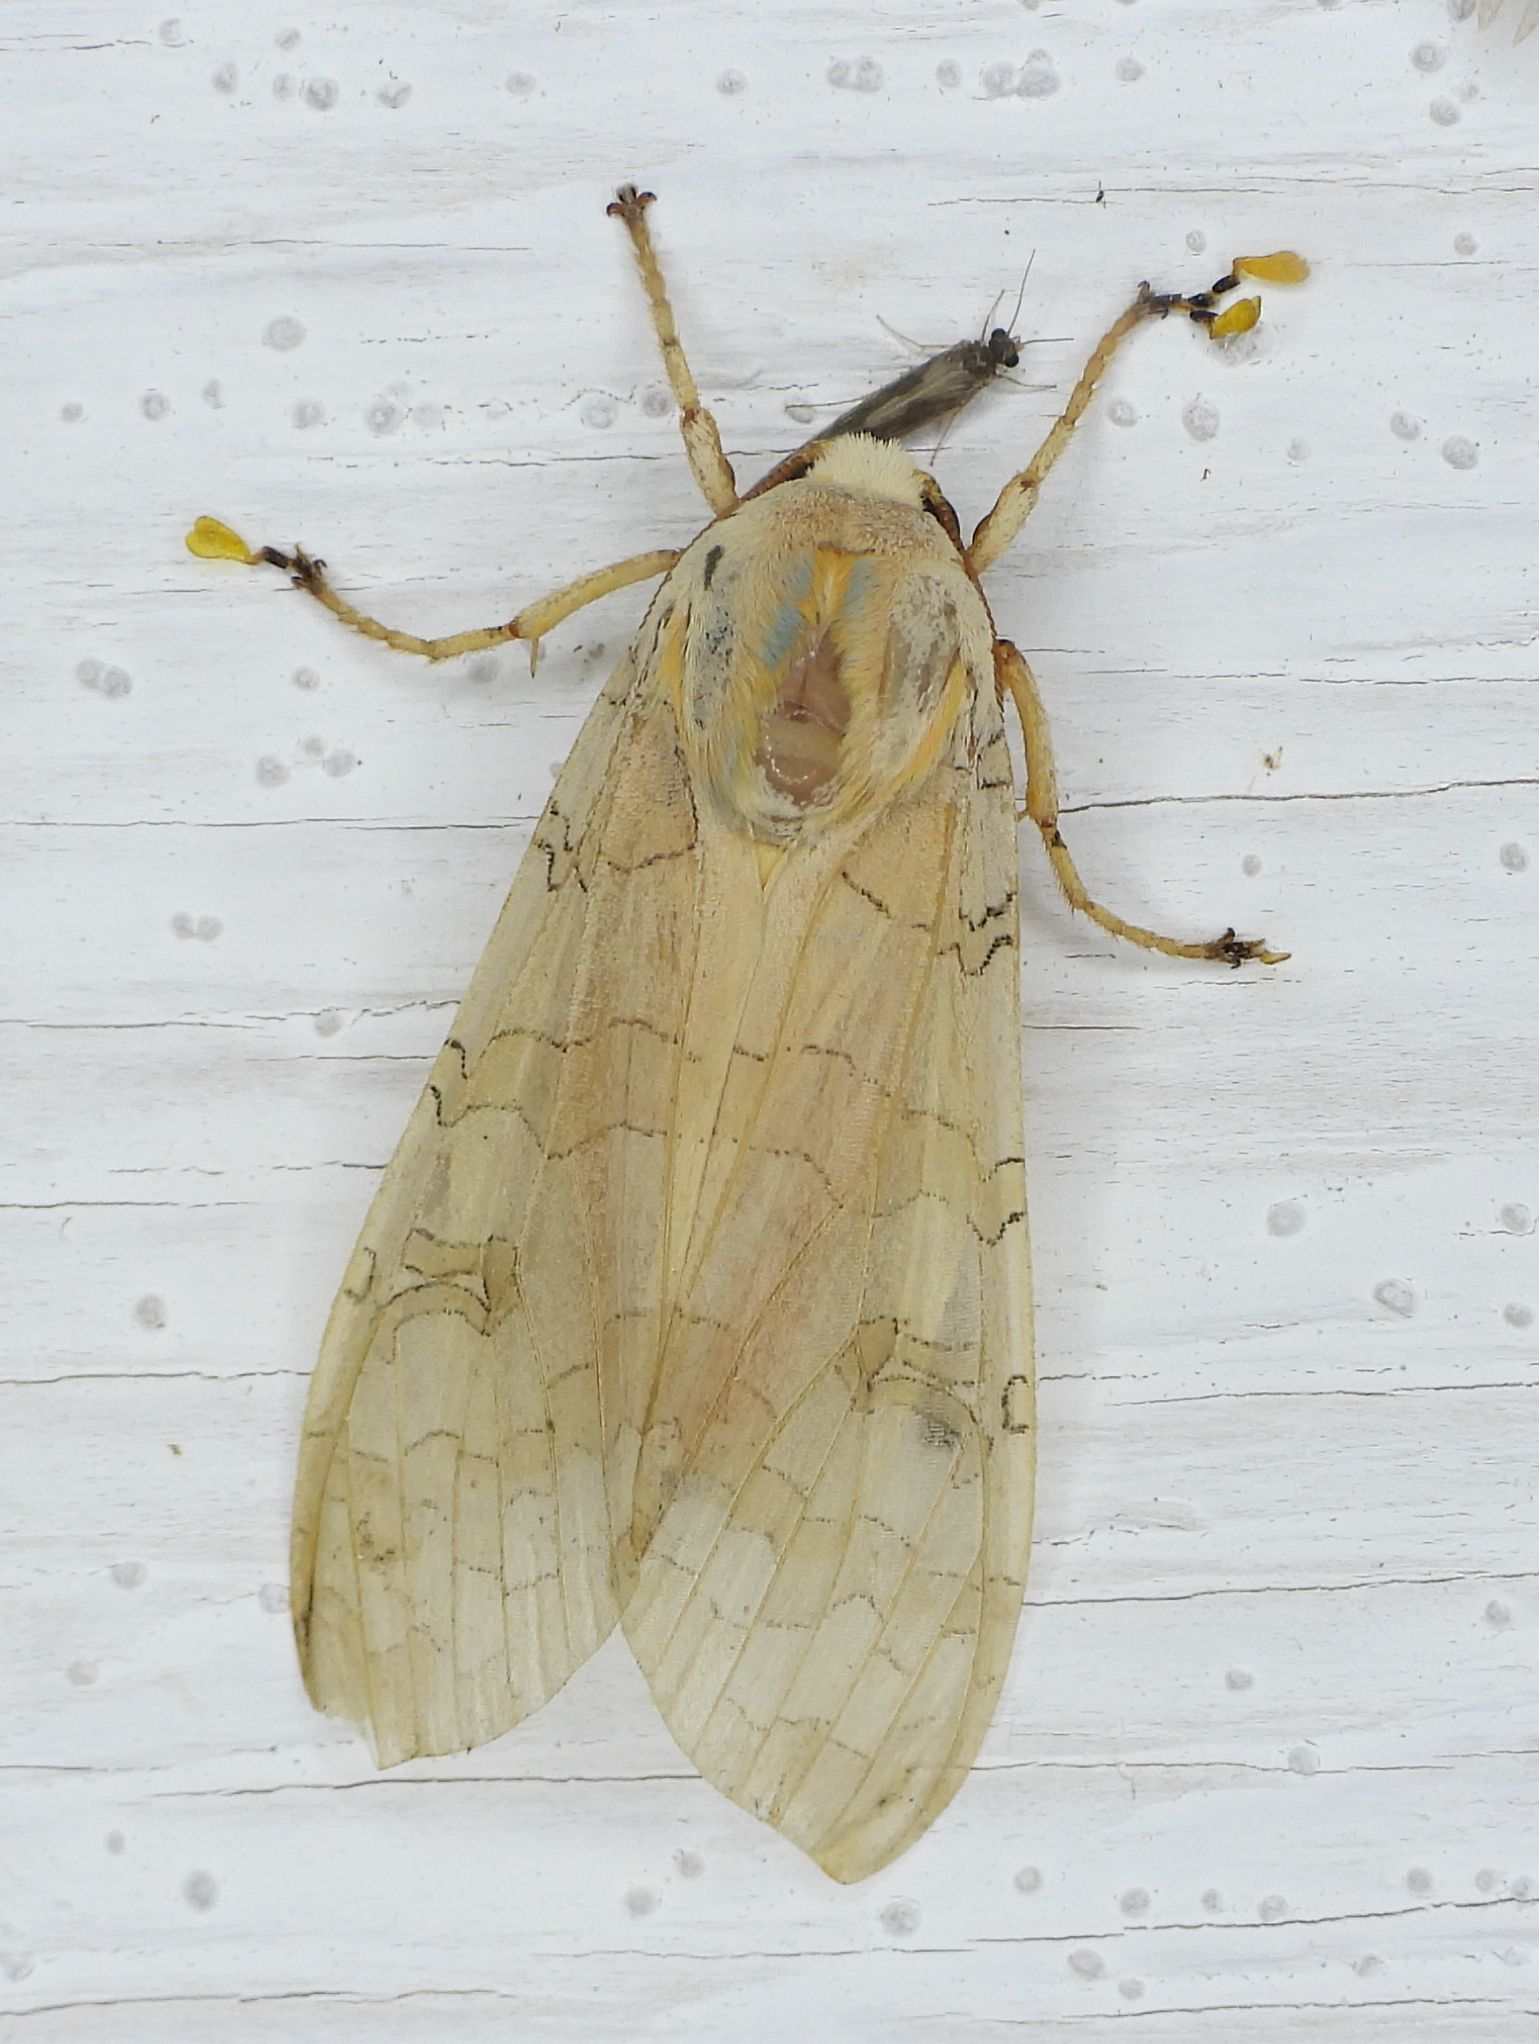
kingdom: Animalia
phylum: Arthropoda
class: Insecta
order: Lepidoptera
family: Erebidae
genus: Halysidota
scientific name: Halysidota tessellaris
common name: Banded tussock moth
